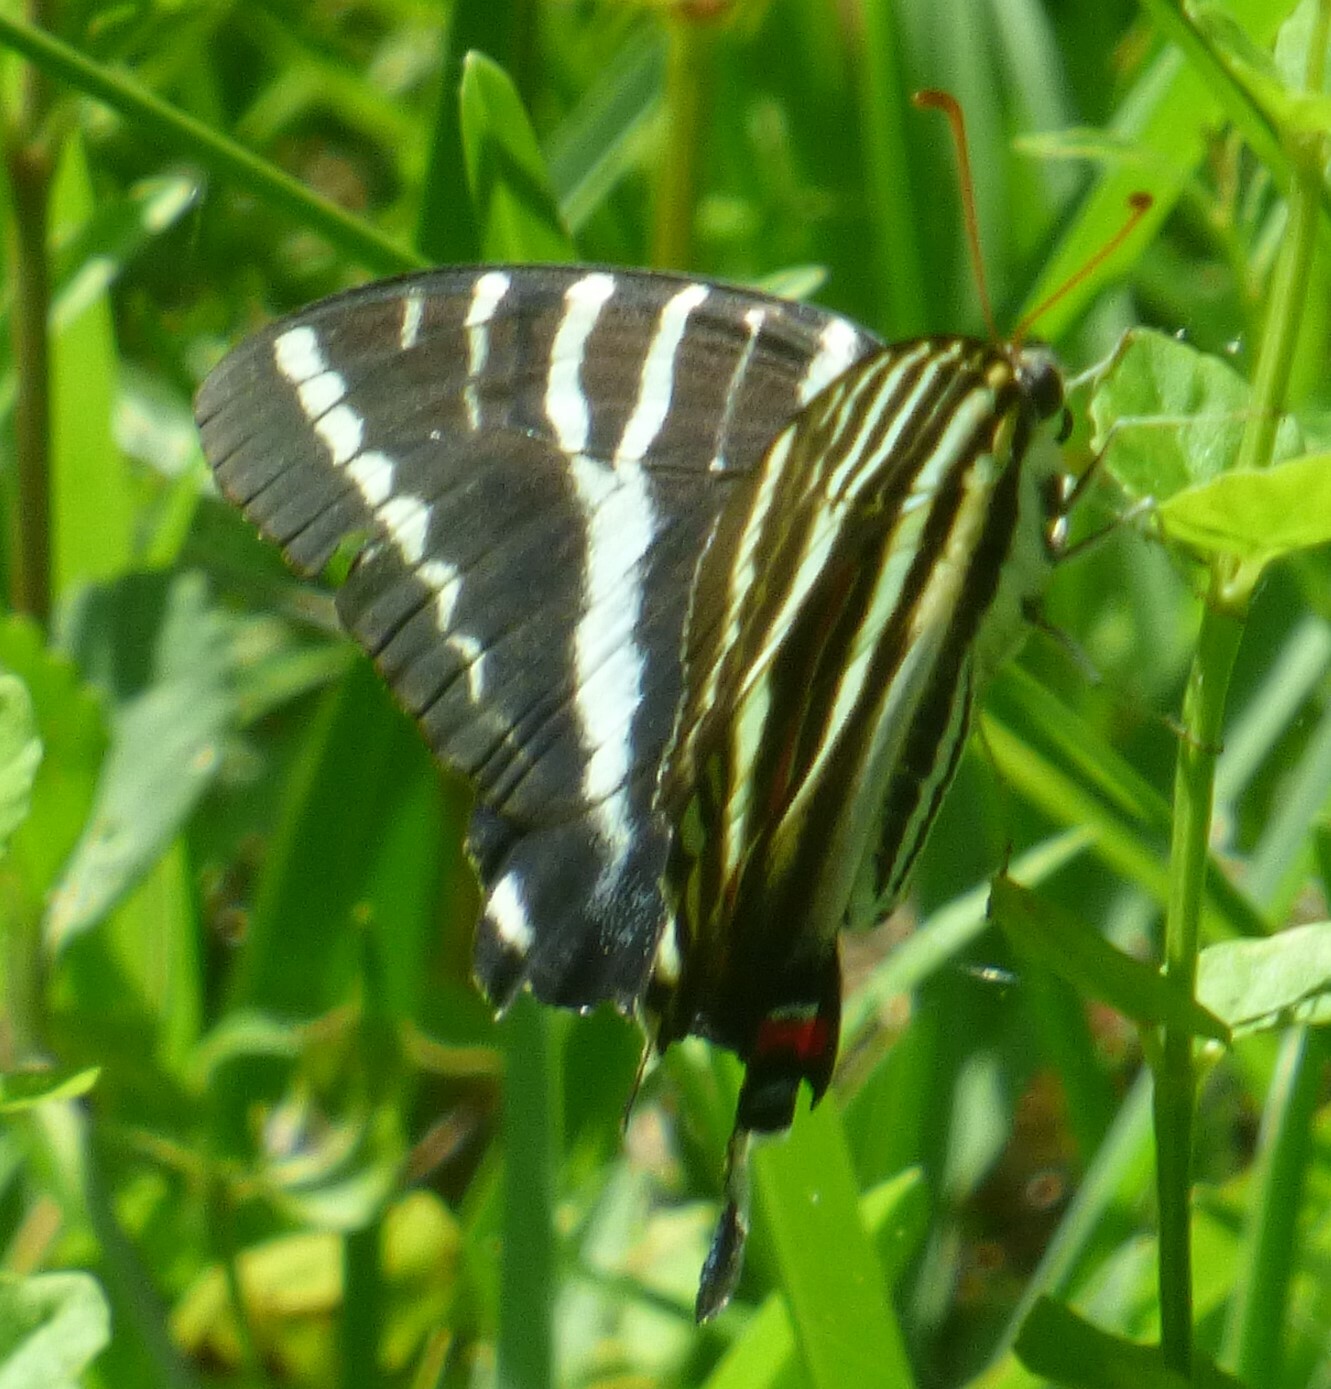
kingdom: Animalia
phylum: Arthropoda
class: Insecta
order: Lepidoptera
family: Papilionidae
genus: Protographium
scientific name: Protographium marcellus
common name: Zebra swallowtail
